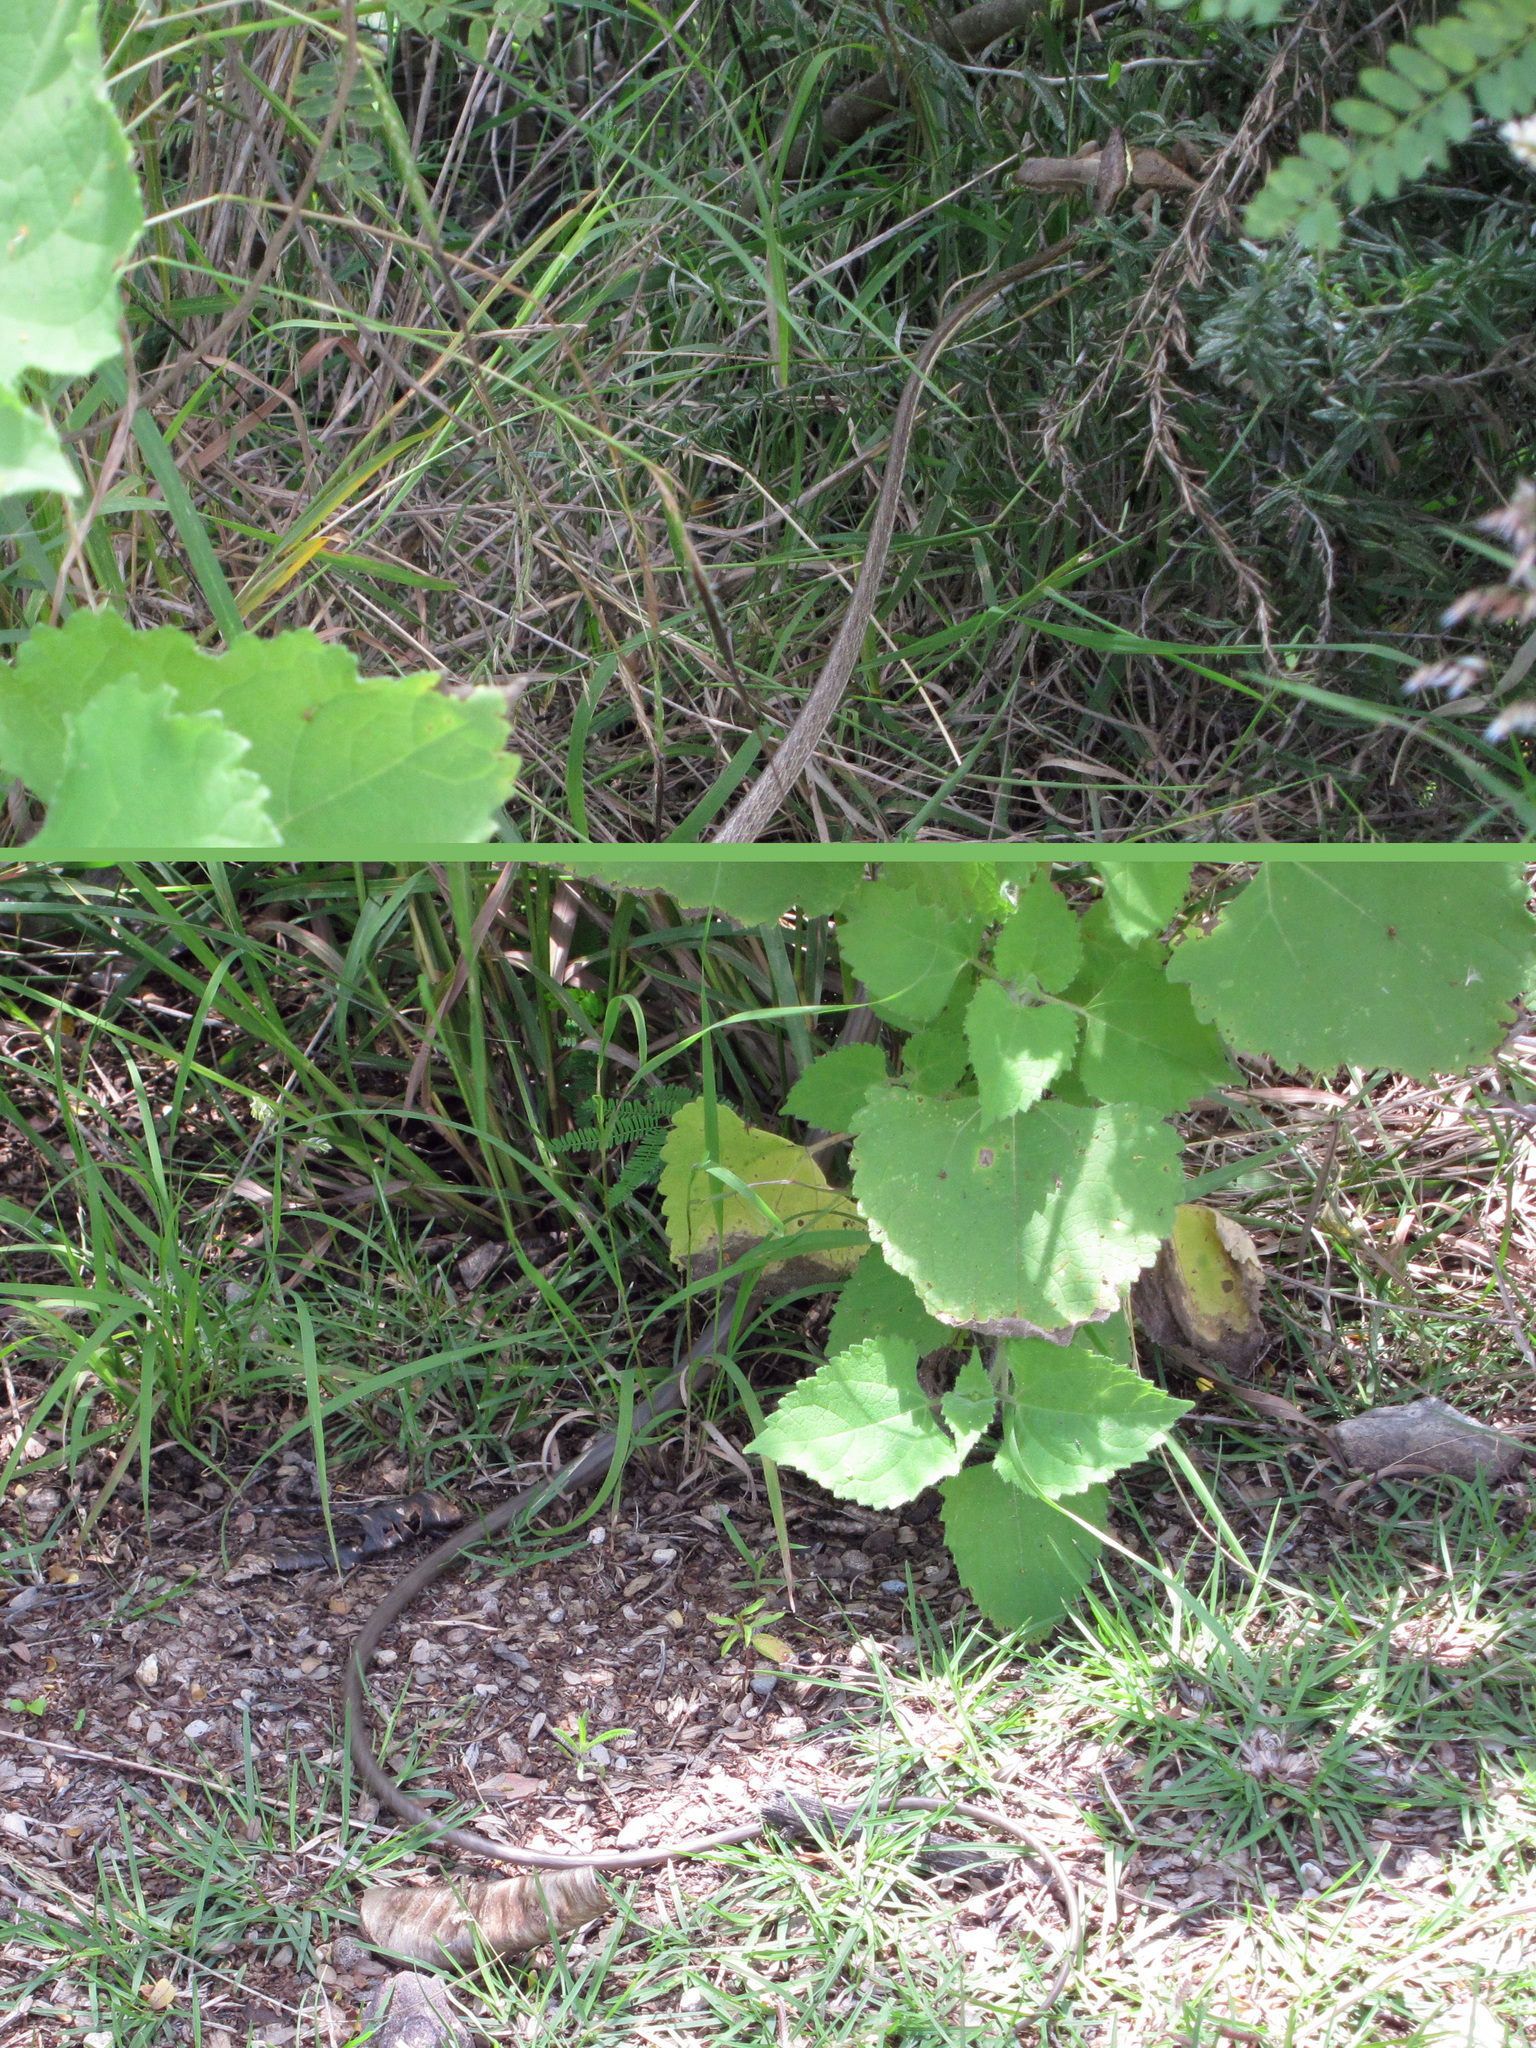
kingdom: Animalia
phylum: Chordata
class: Squamata
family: Colubridae
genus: Oxybelis
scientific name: Oxybelis microphthalmus
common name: Thrornscrub vine snake
